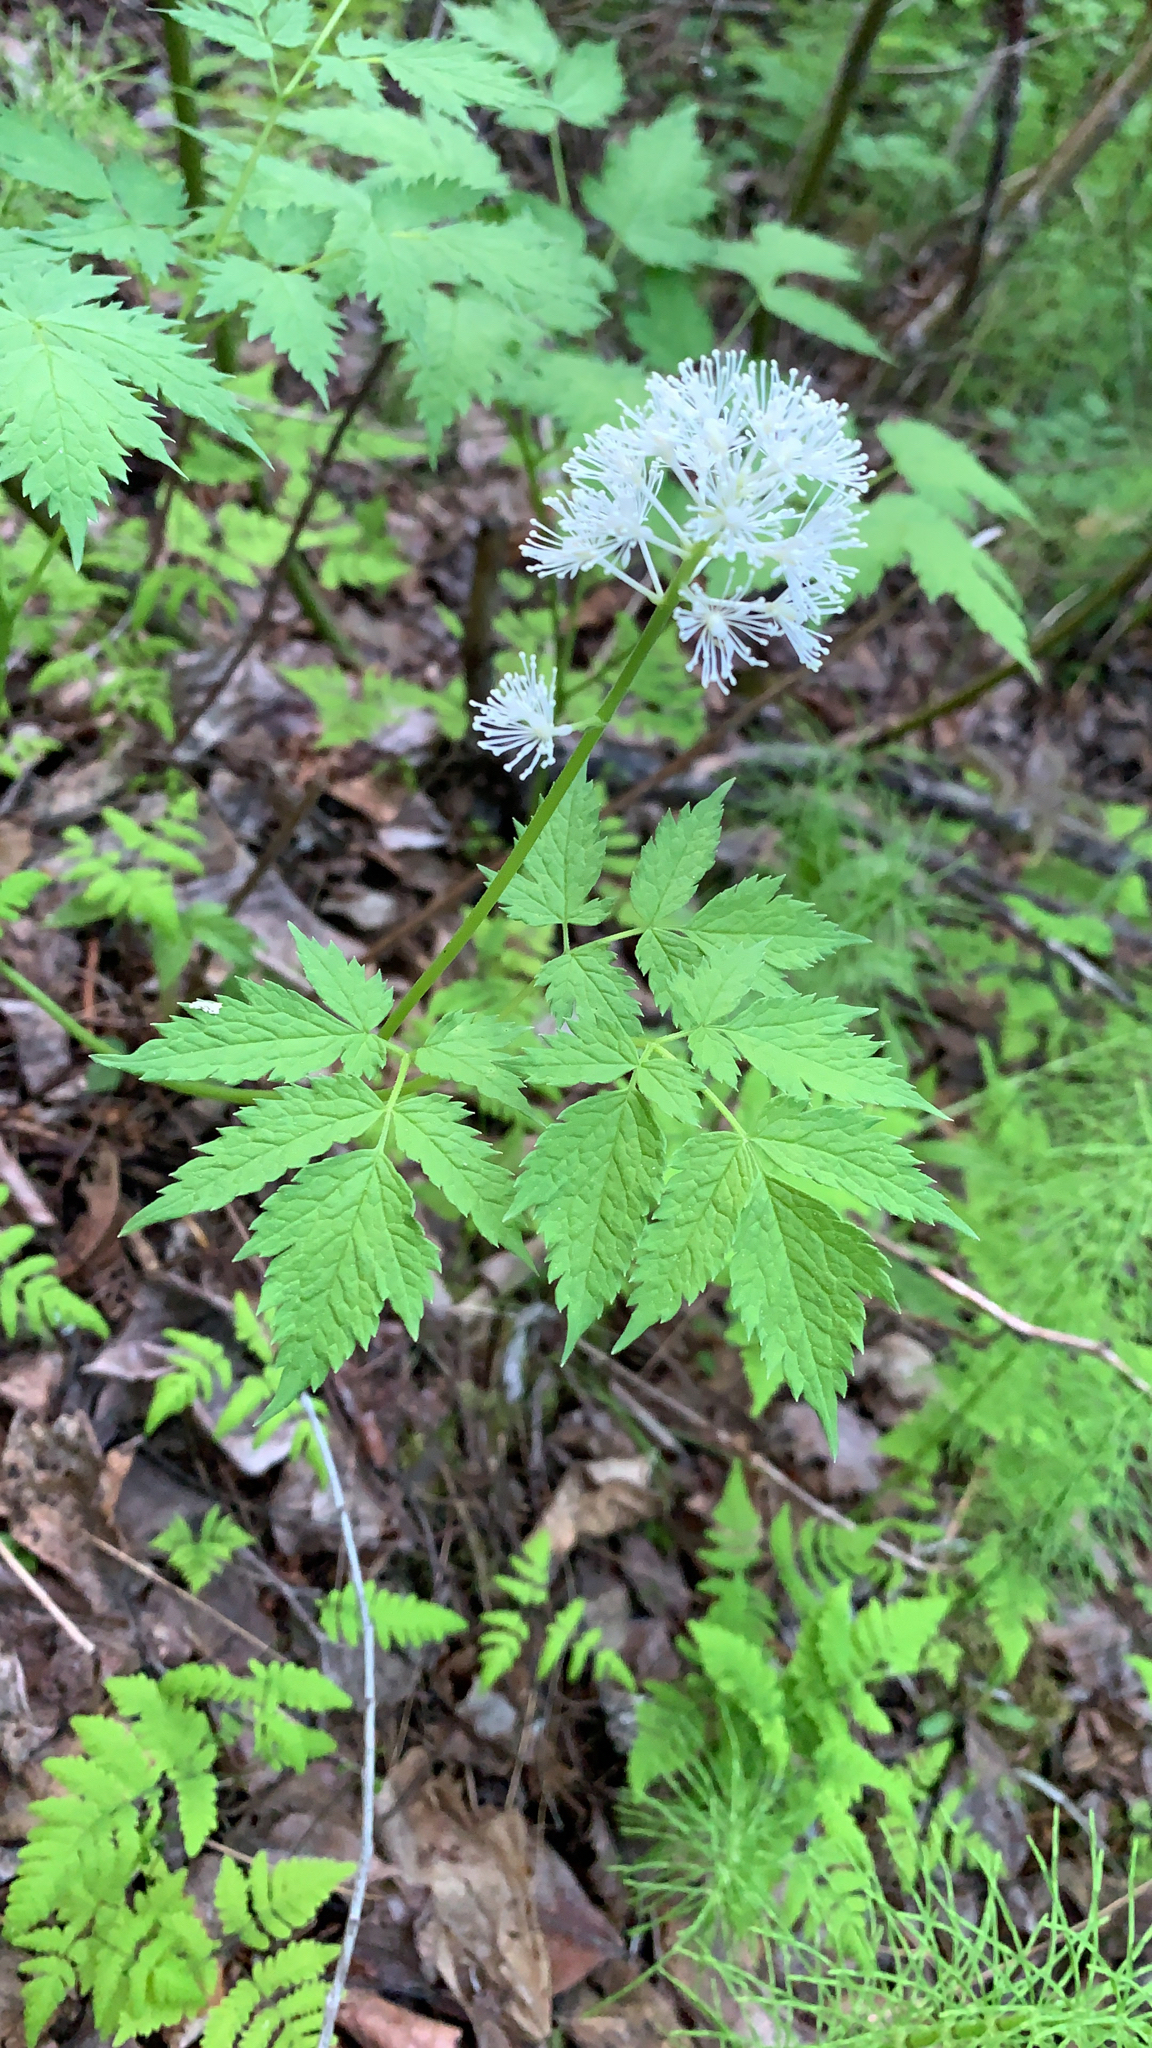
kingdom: Plantae
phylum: Tracheophyta
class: Magnoliopsida
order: Ranunculales
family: Ranunculaceae
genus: Actaea
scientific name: Actaea rubra
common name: Red baneberry
